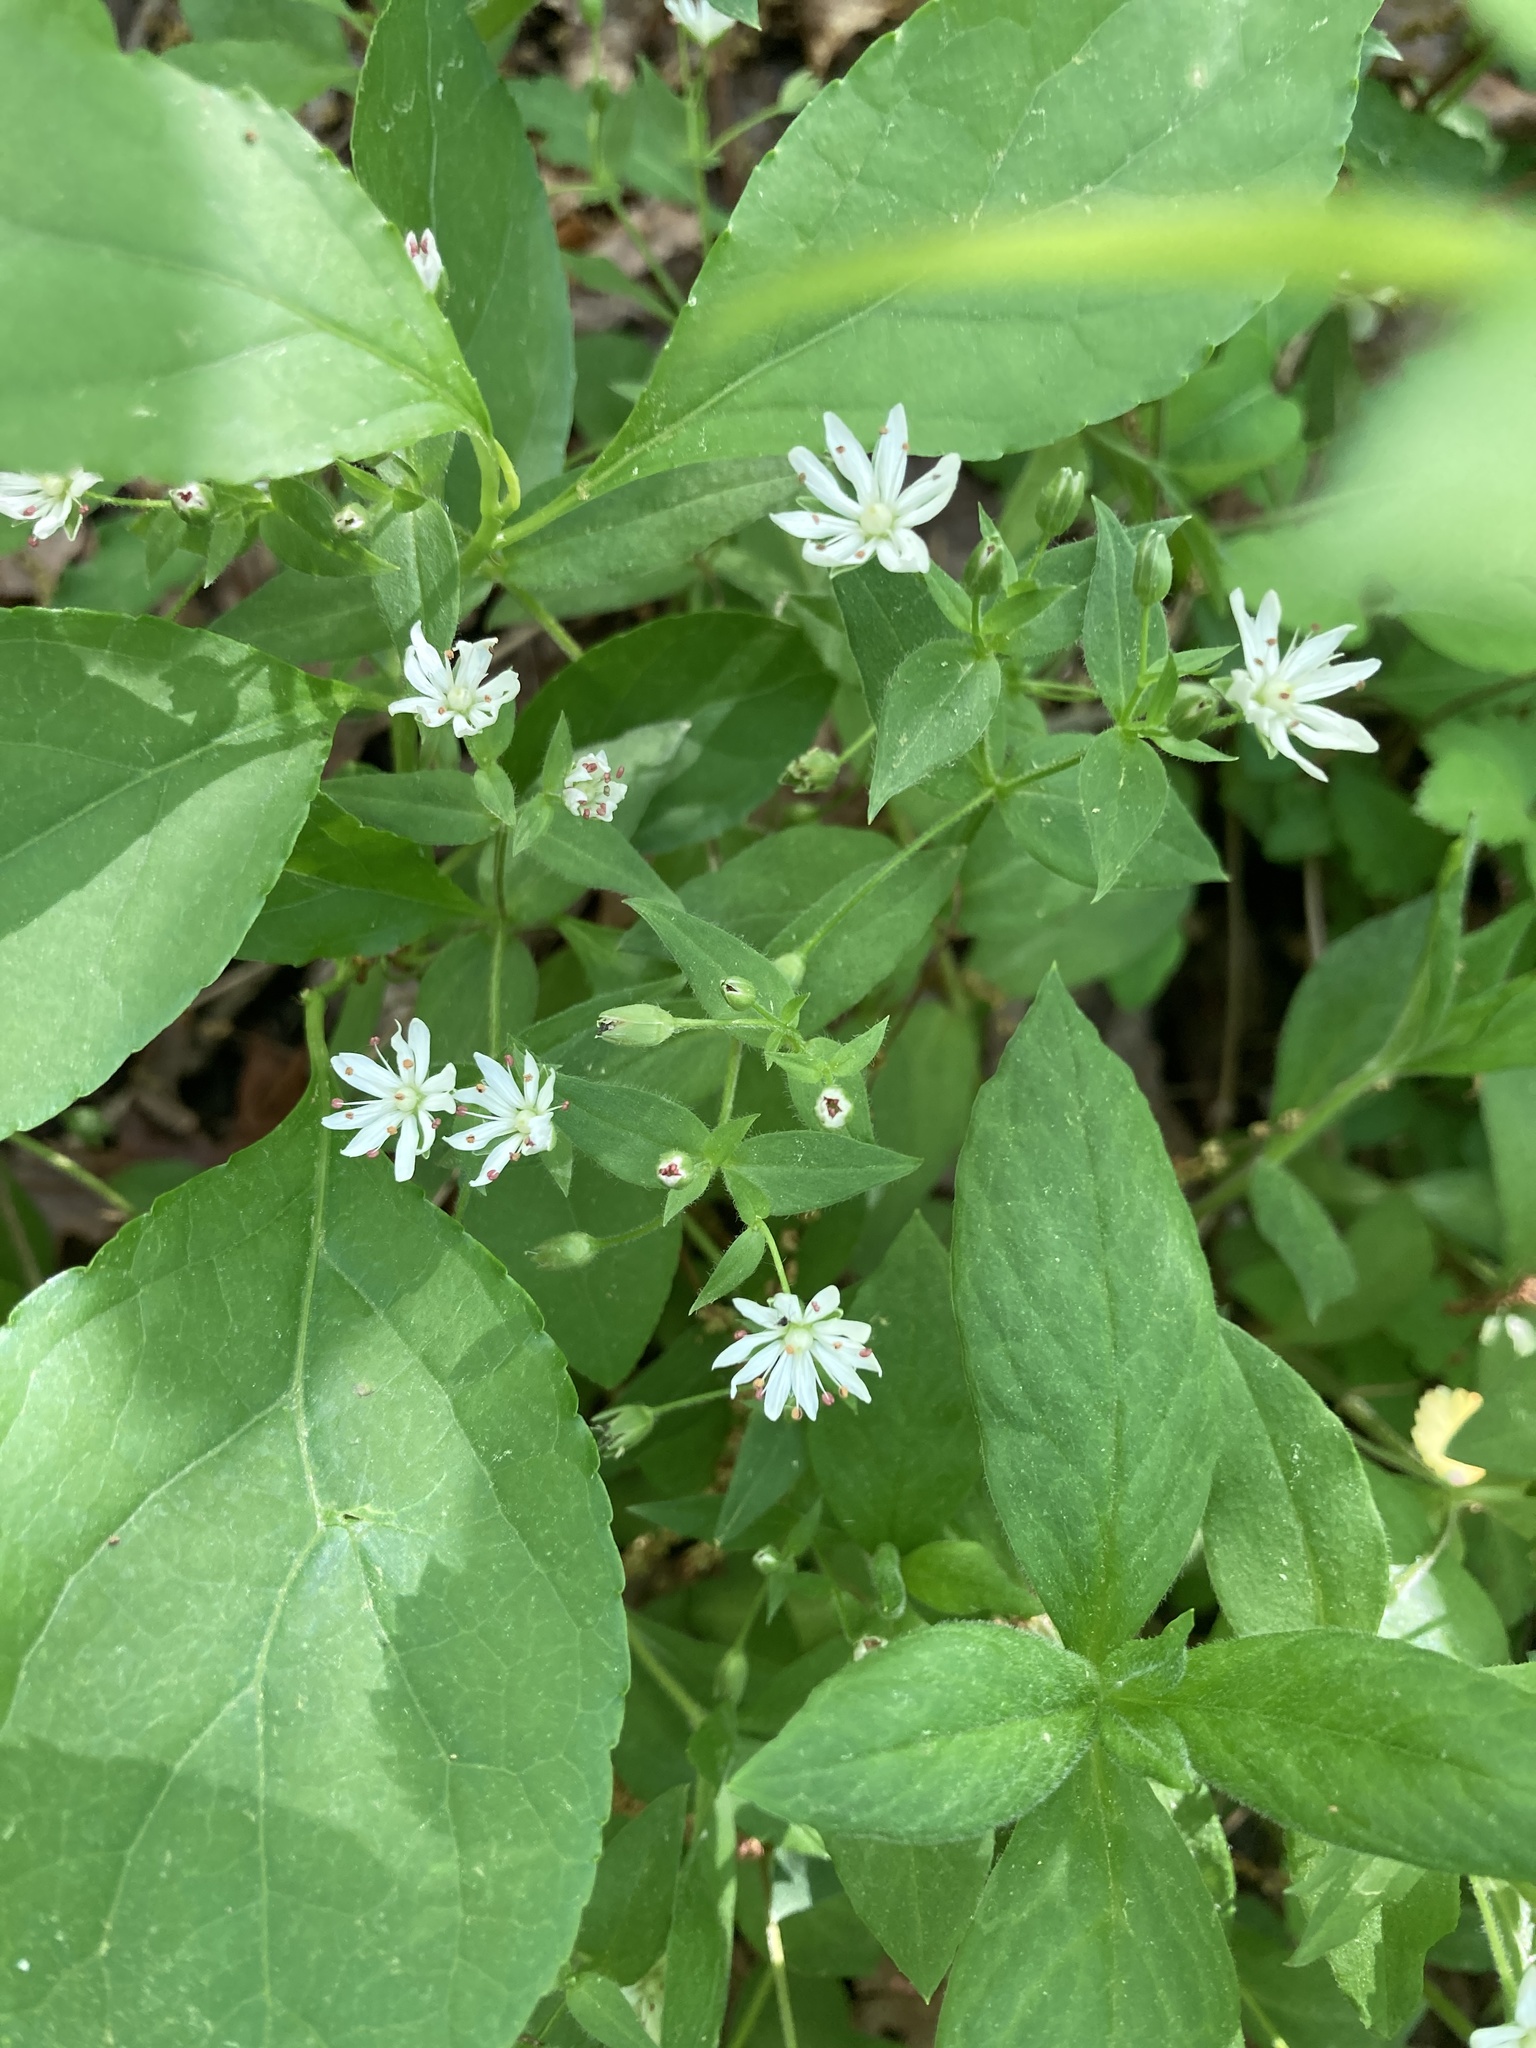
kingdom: Plantae
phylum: Tracheophyta
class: Magnoliopsida
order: Caryophyllales
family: Caryophyllaceae
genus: Stellaria
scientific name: Stellaria pubera
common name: Star chickweed
